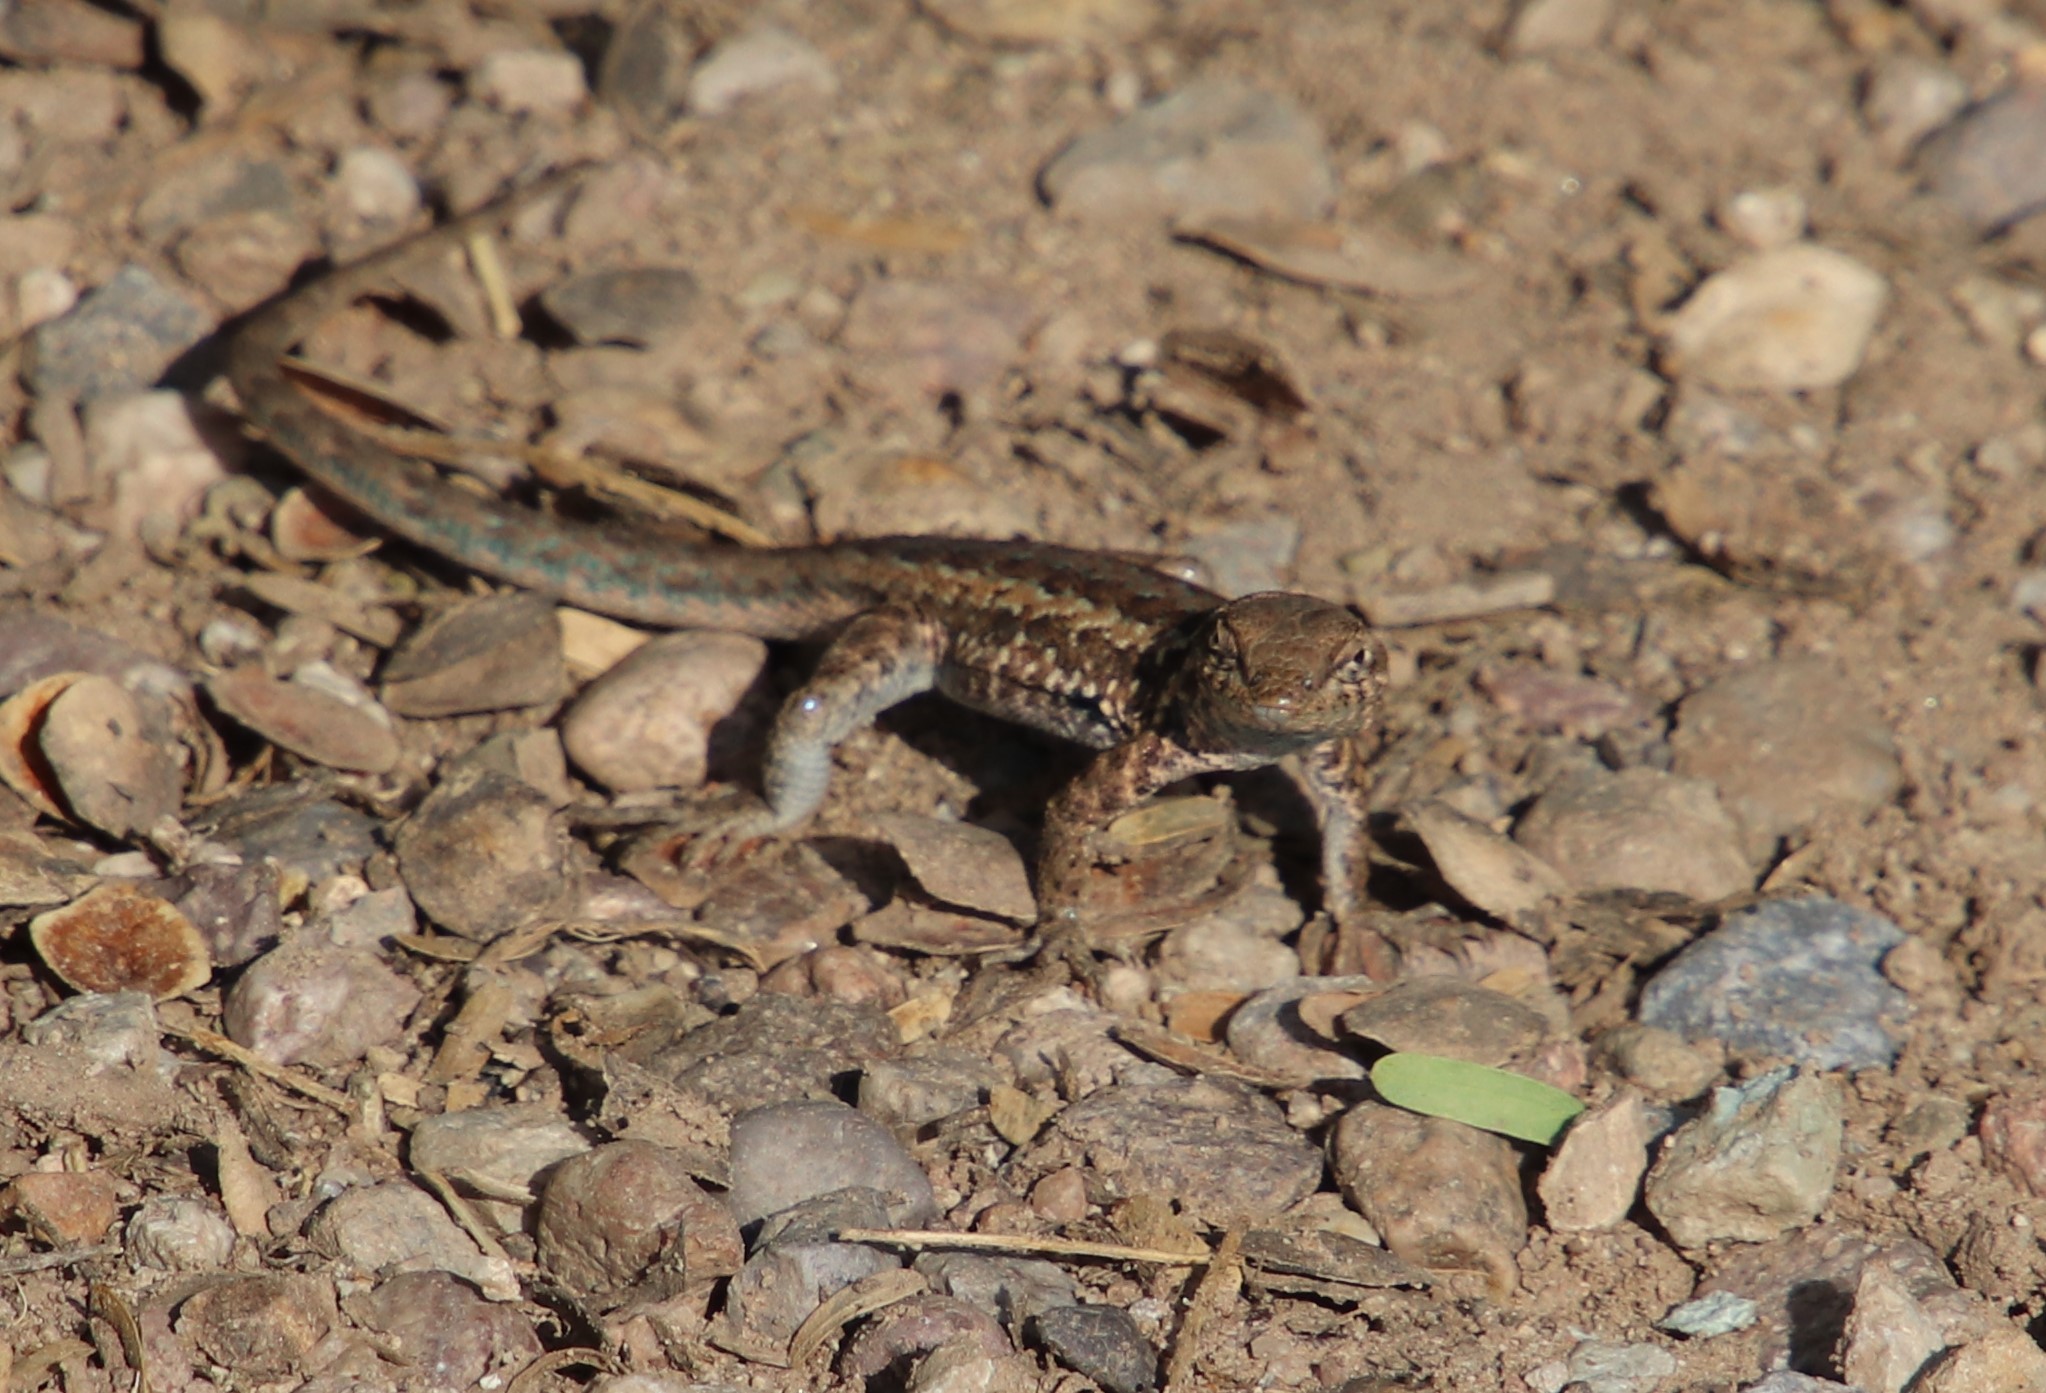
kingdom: Animalia
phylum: Chordata
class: Squamata
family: Phrynosomatidae
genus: Uta
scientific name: Uta stansburiana
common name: Side-blotched lizard
